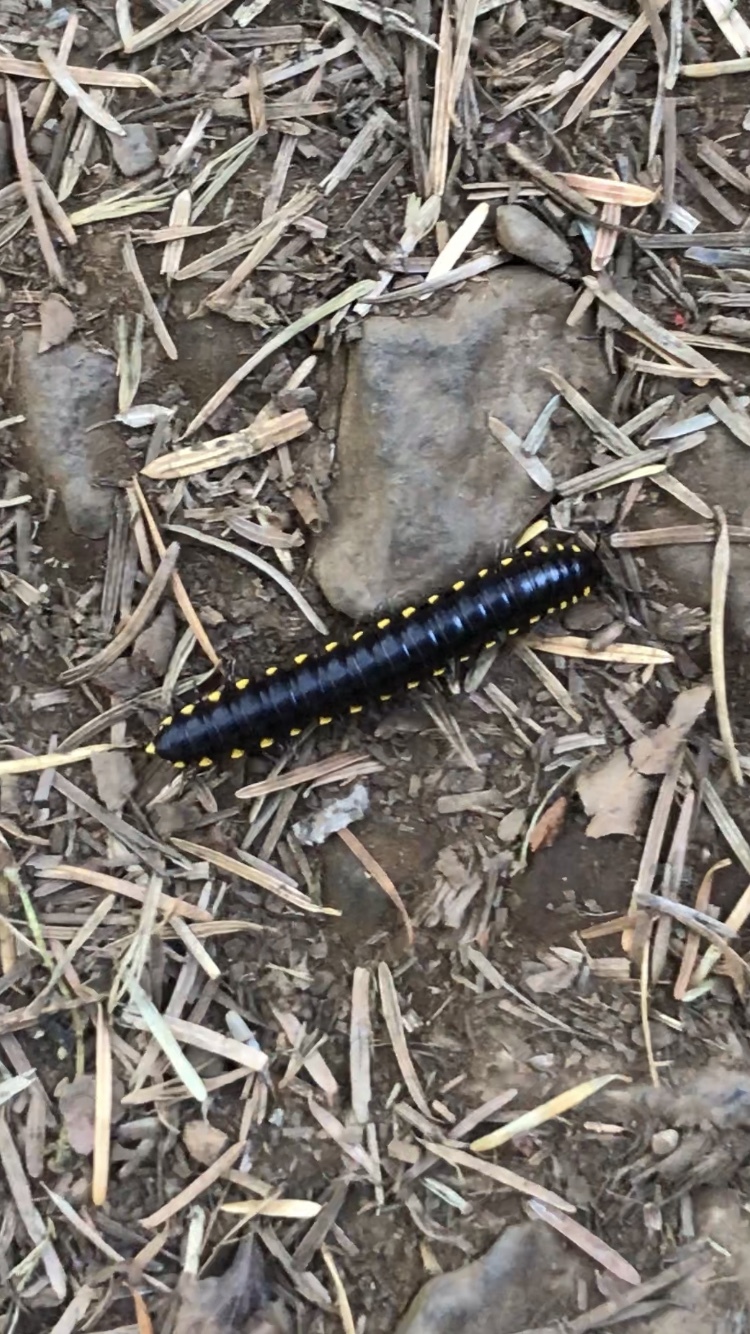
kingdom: Animalia
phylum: Arthropoda
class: Diplopoda
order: Polydesmida
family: Xystodesmidae
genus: Harpaphe
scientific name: Harpaphe haydeniana
